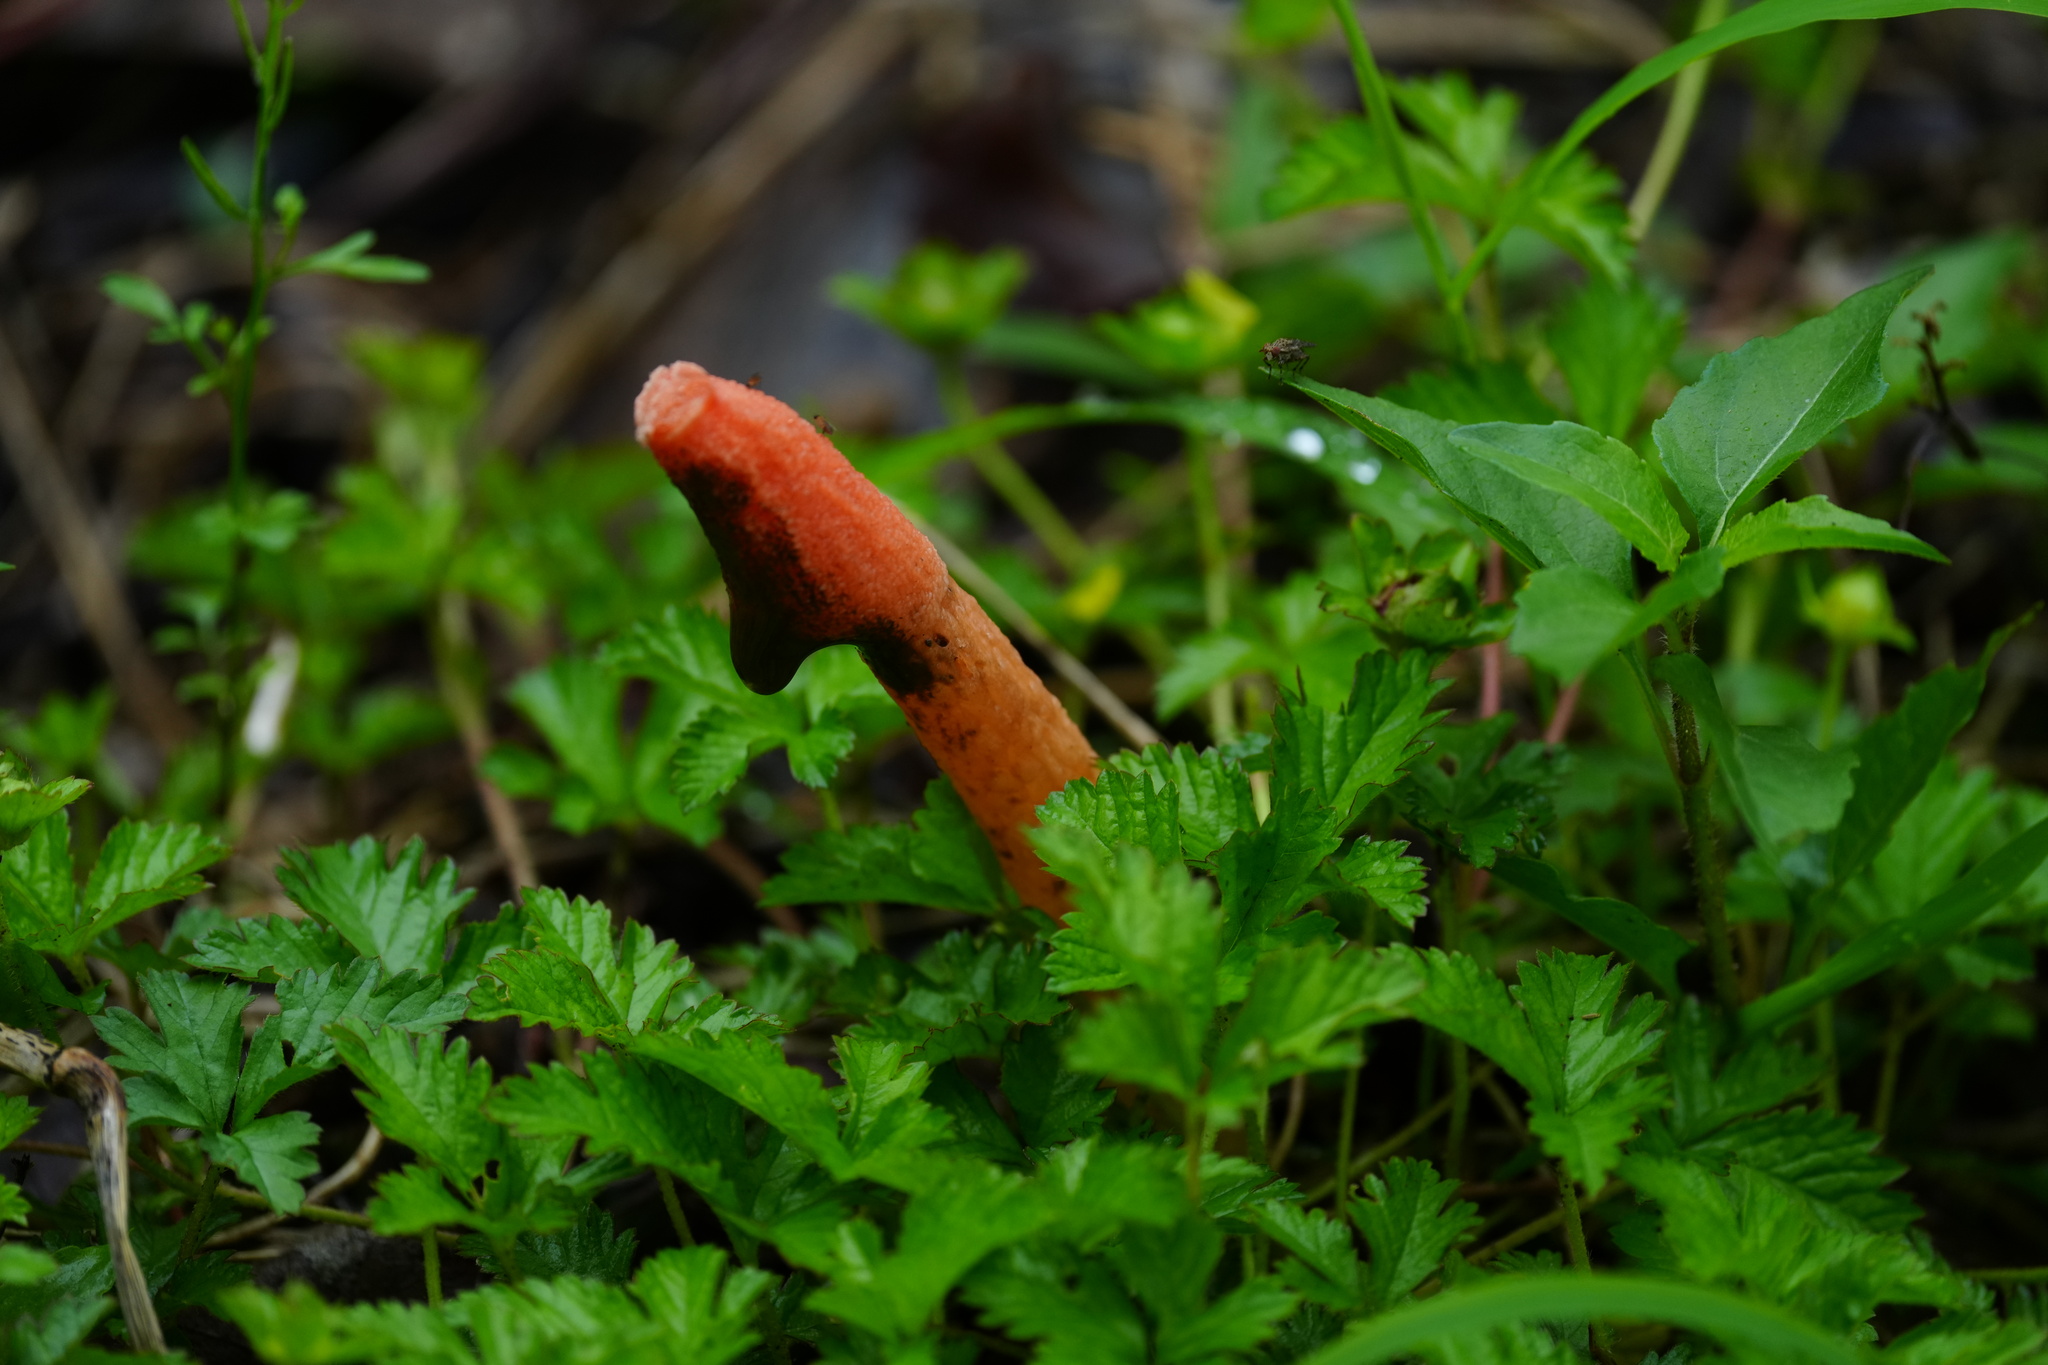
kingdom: Fungi
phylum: Basidiomycota
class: Agaricomycetes
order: Phallales
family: Phallaceae
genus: Phallus
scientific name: Phallus rugulosus
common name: Wrinkly stinkhorn
